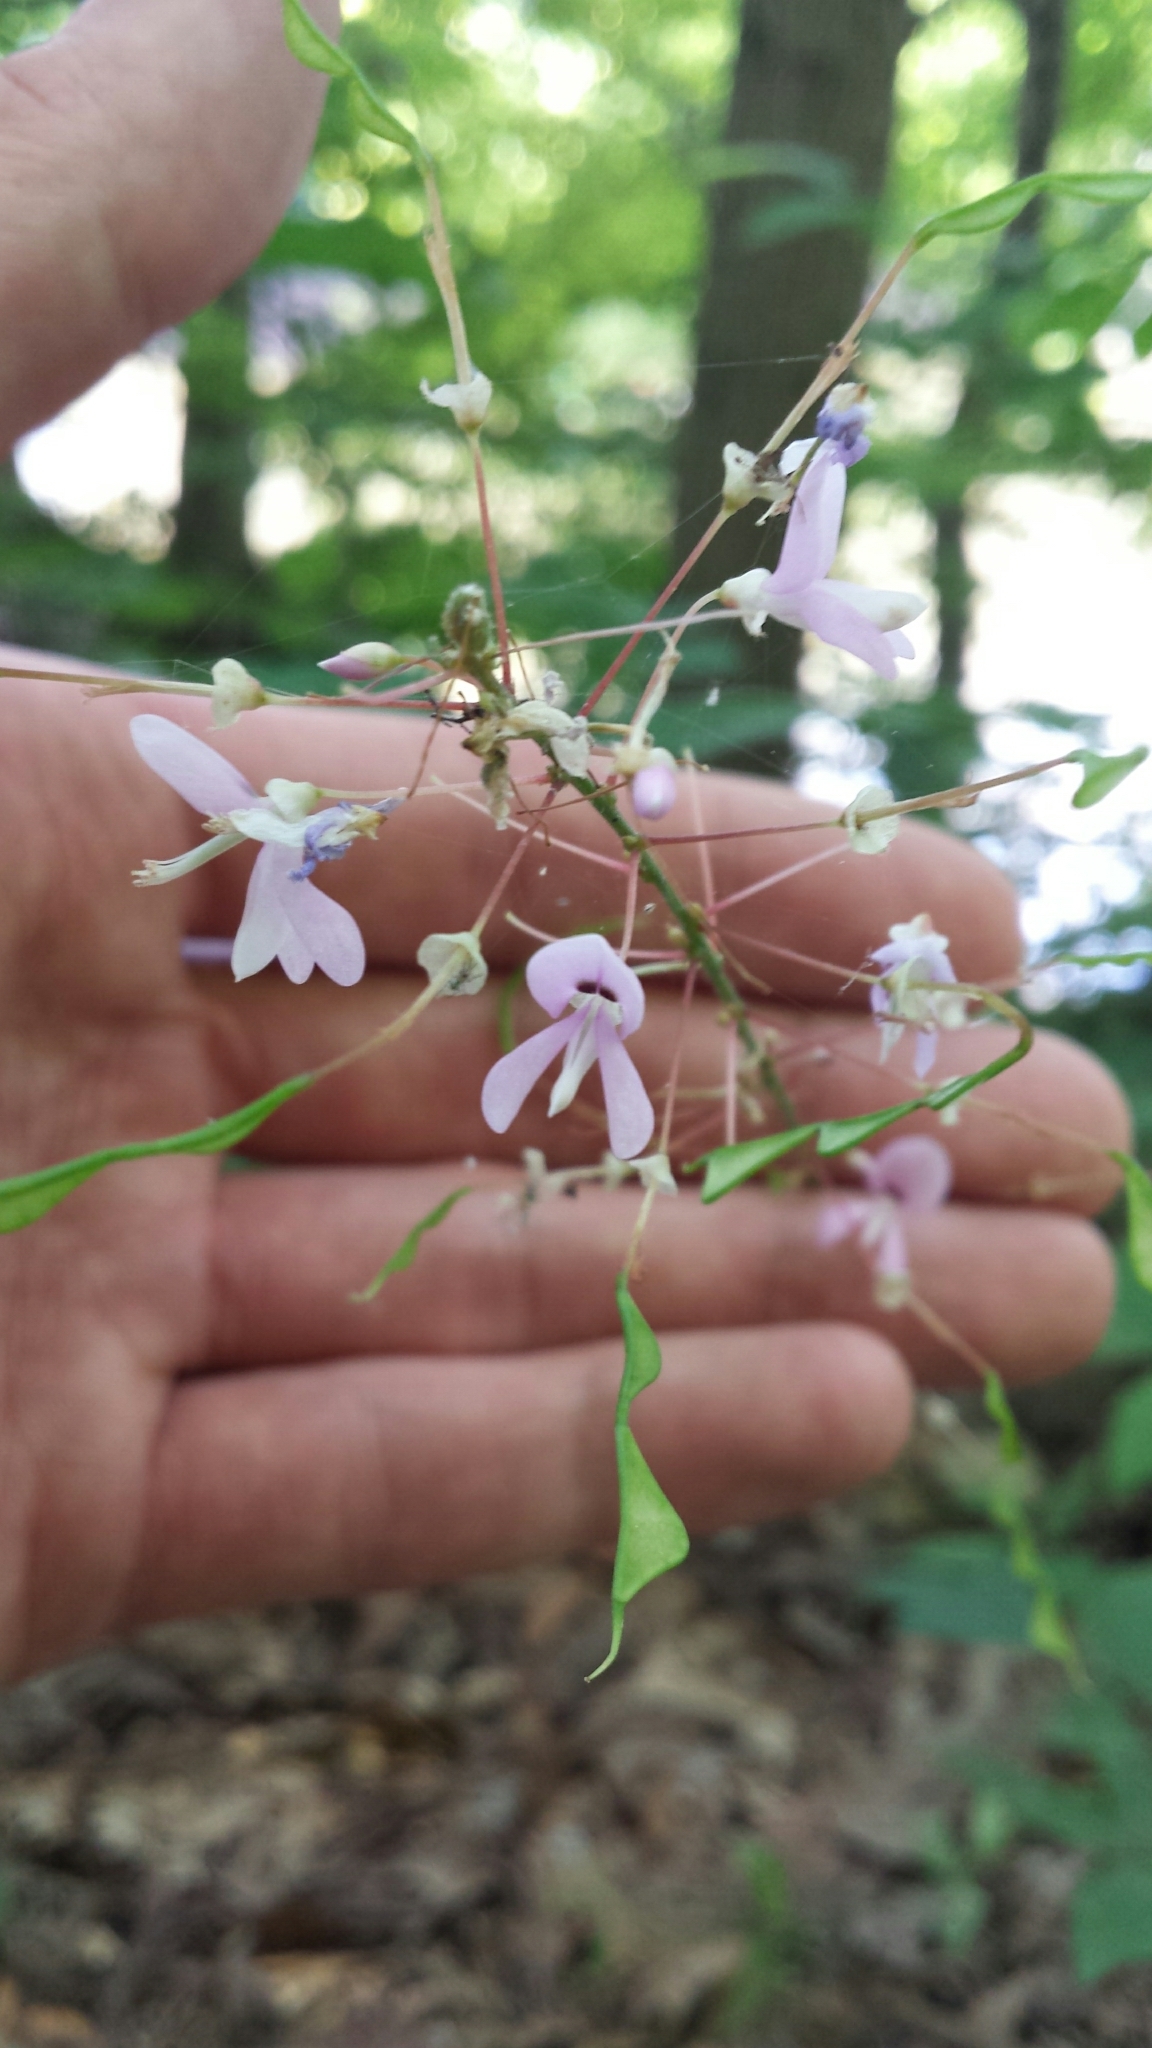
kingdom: Plantae
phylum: Tracheophyta
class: Magnoliopsida
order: Fabales
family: Fabaceae
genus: Hylodesmum
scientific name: Hylodesmum nudiflorum
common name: Bare-stemmed tick-trefoil
